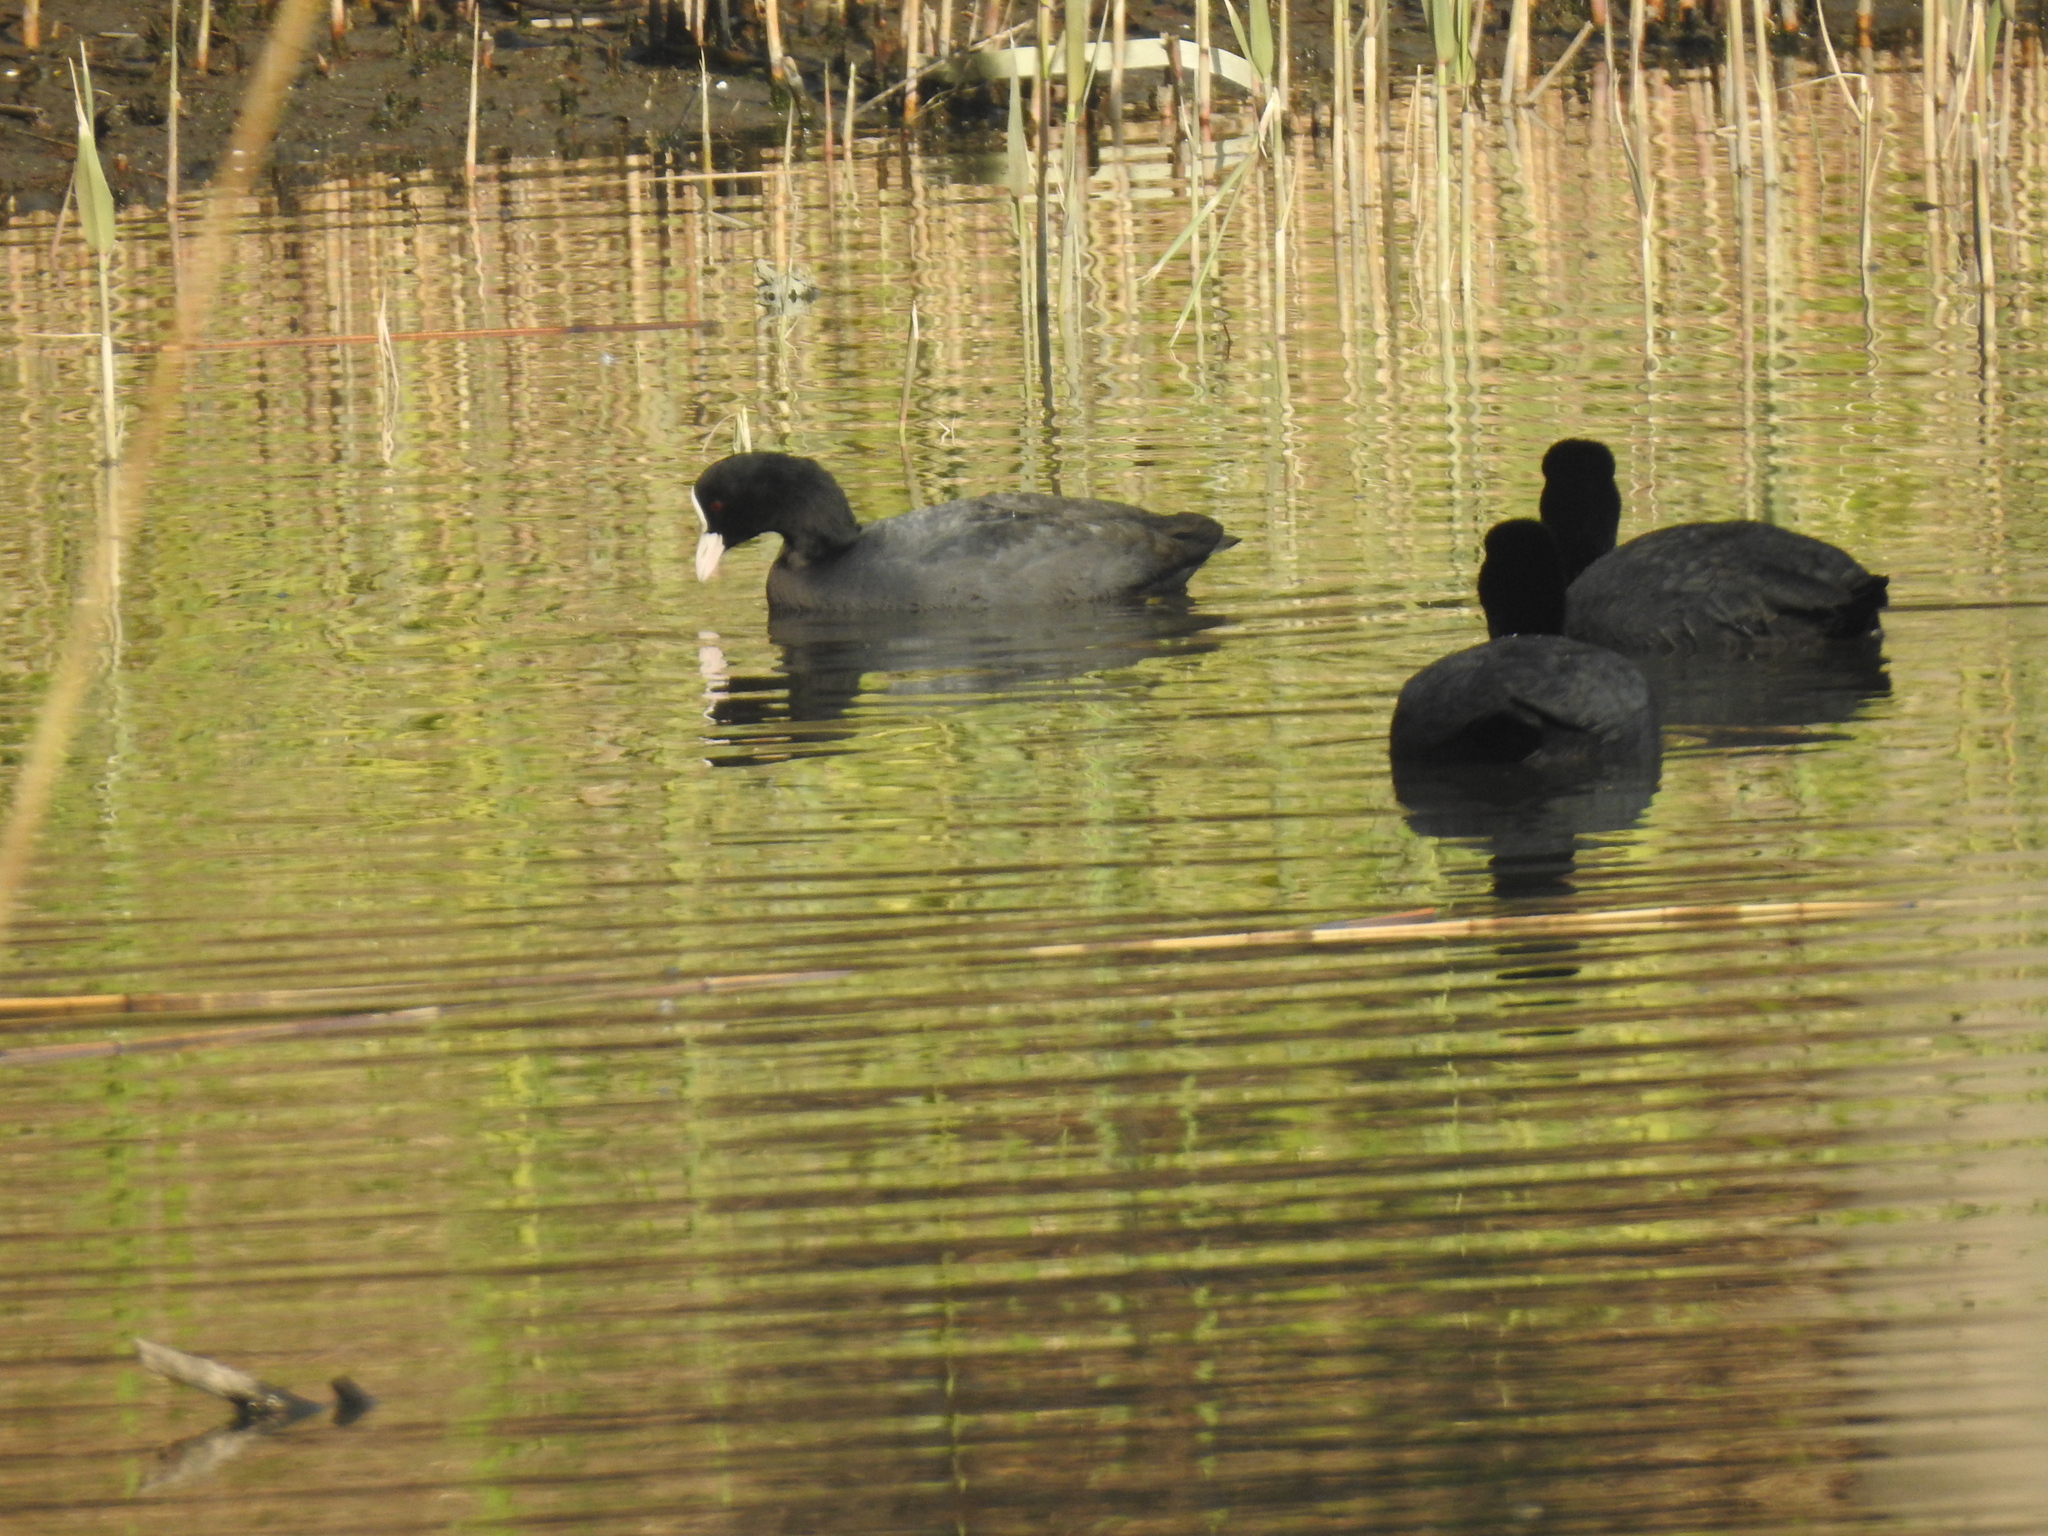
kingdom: Animalia
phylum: Chordata
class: Aves
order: Gruiformes
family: Rallidae
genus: Fulica
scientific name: Fulica atra
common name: Eurasian coot
